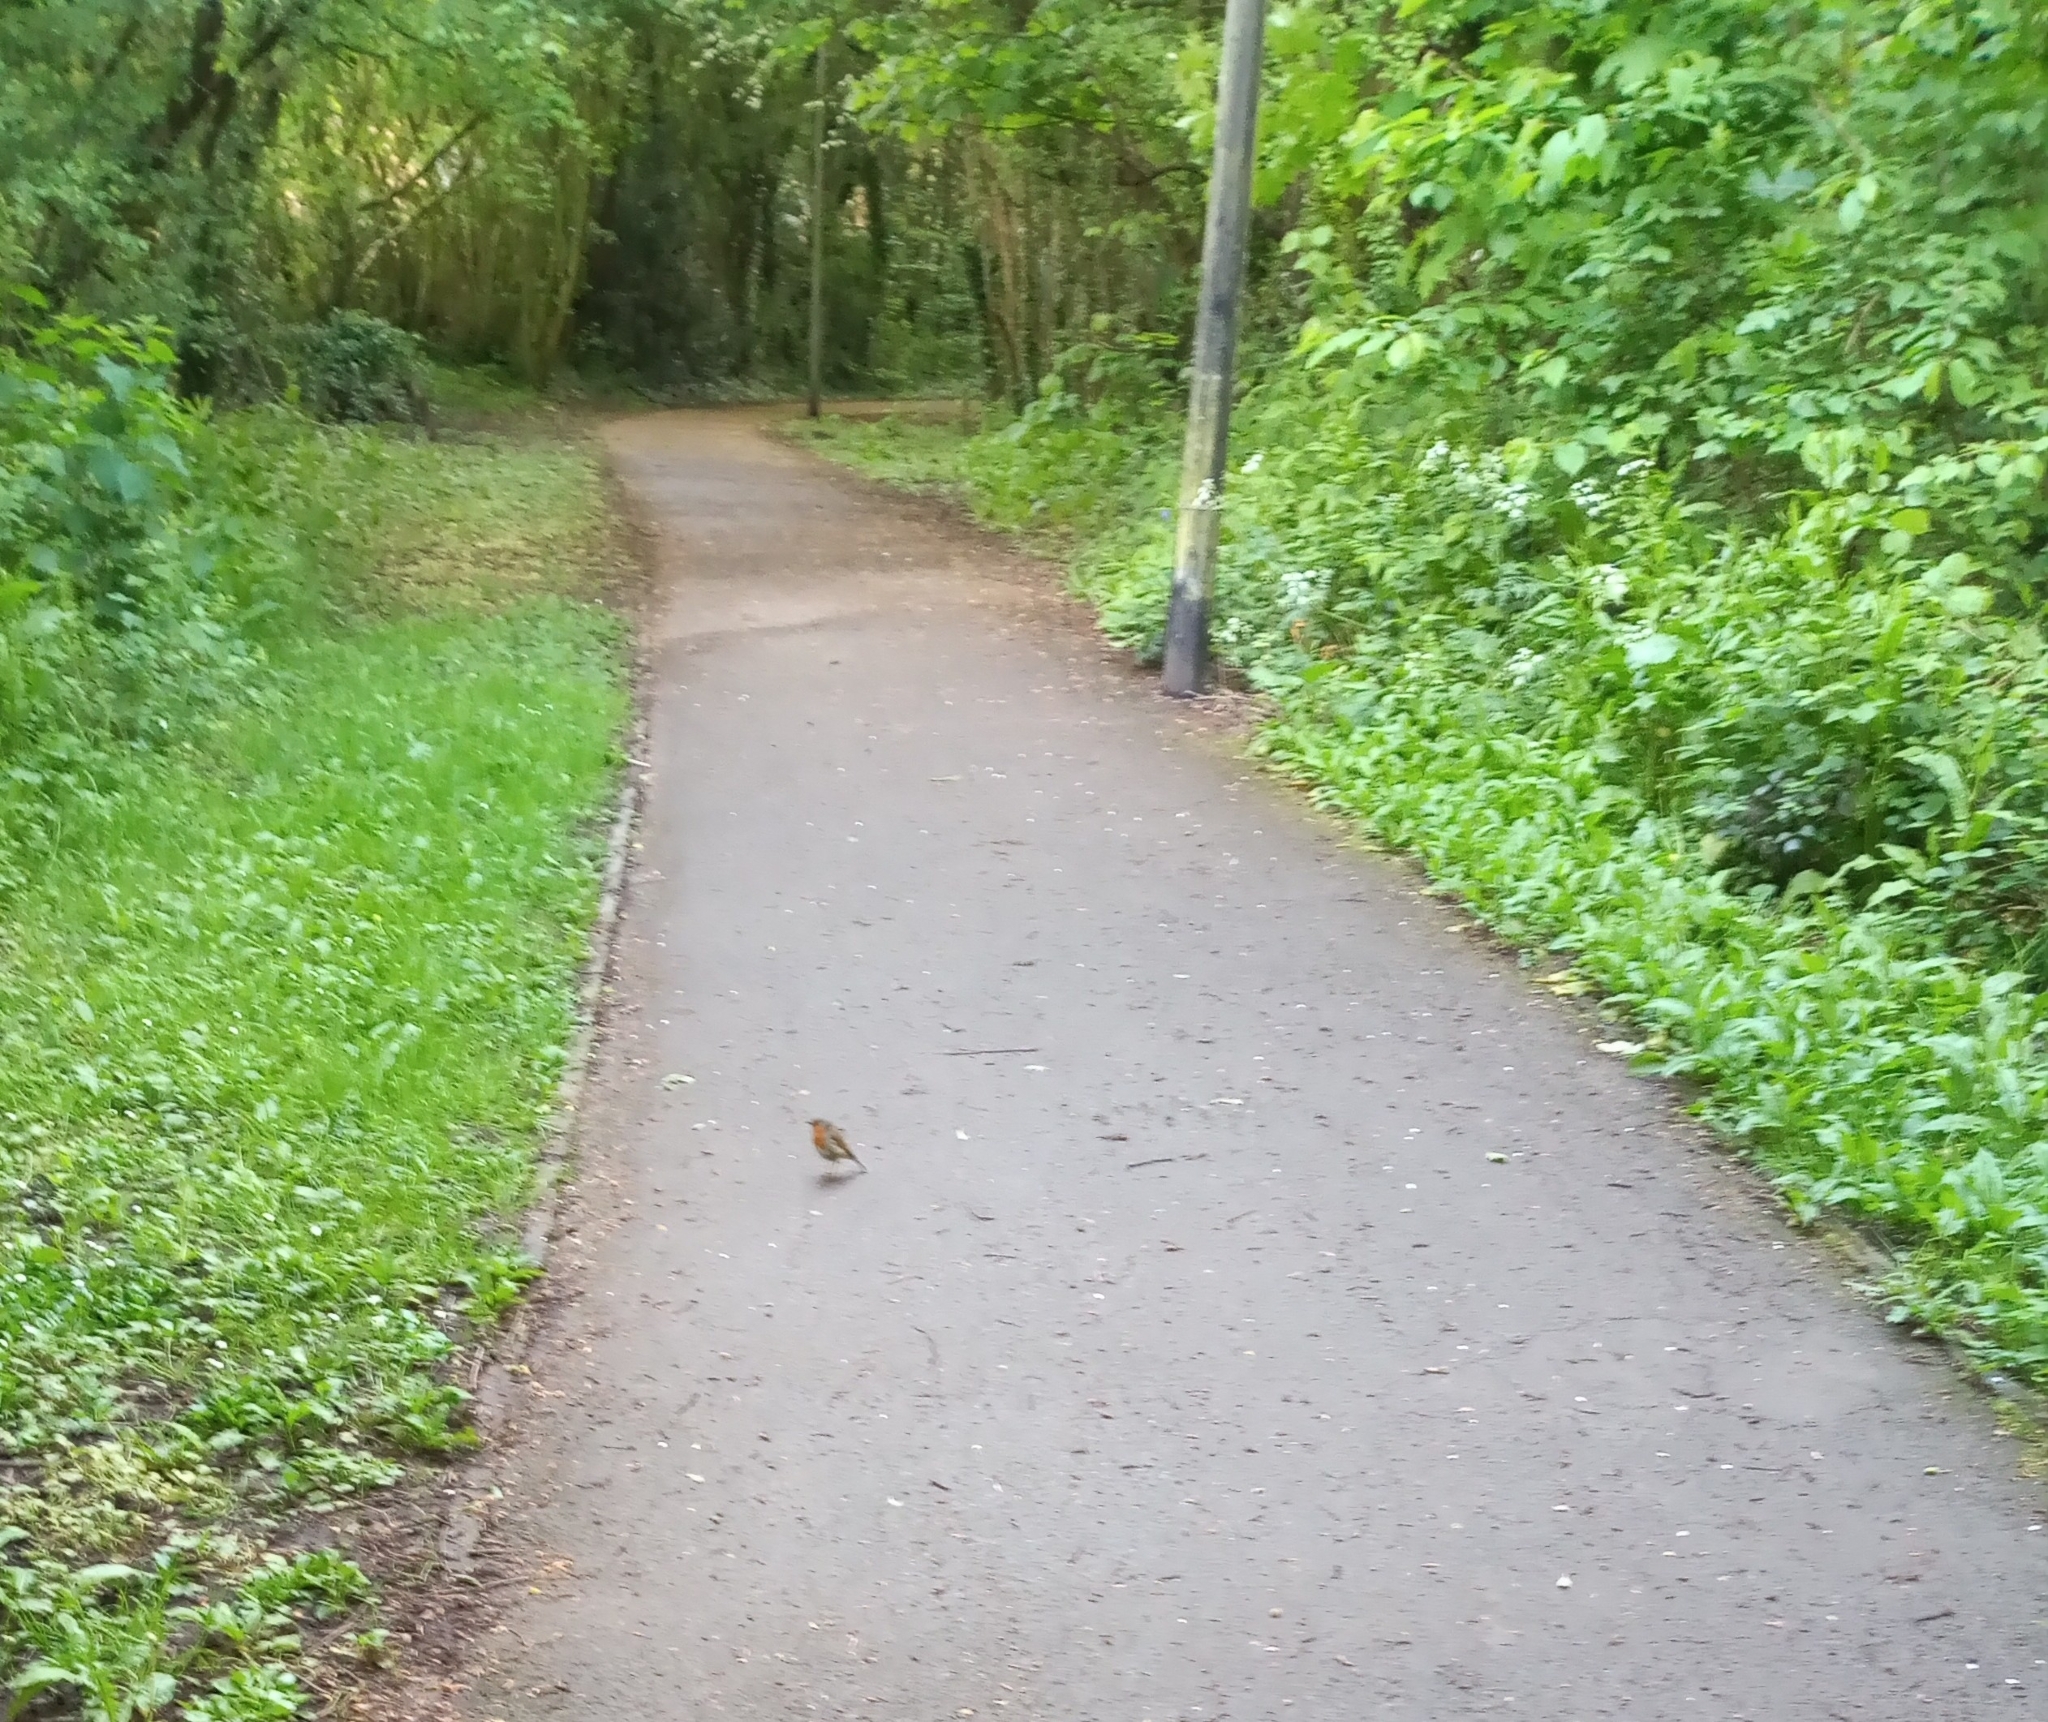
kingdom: Animalia
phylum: Chordata
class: Aves
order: Passeriformes
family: Muscicapidae
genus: Erithacus
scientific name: Erithacus rubecula
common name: European robin
